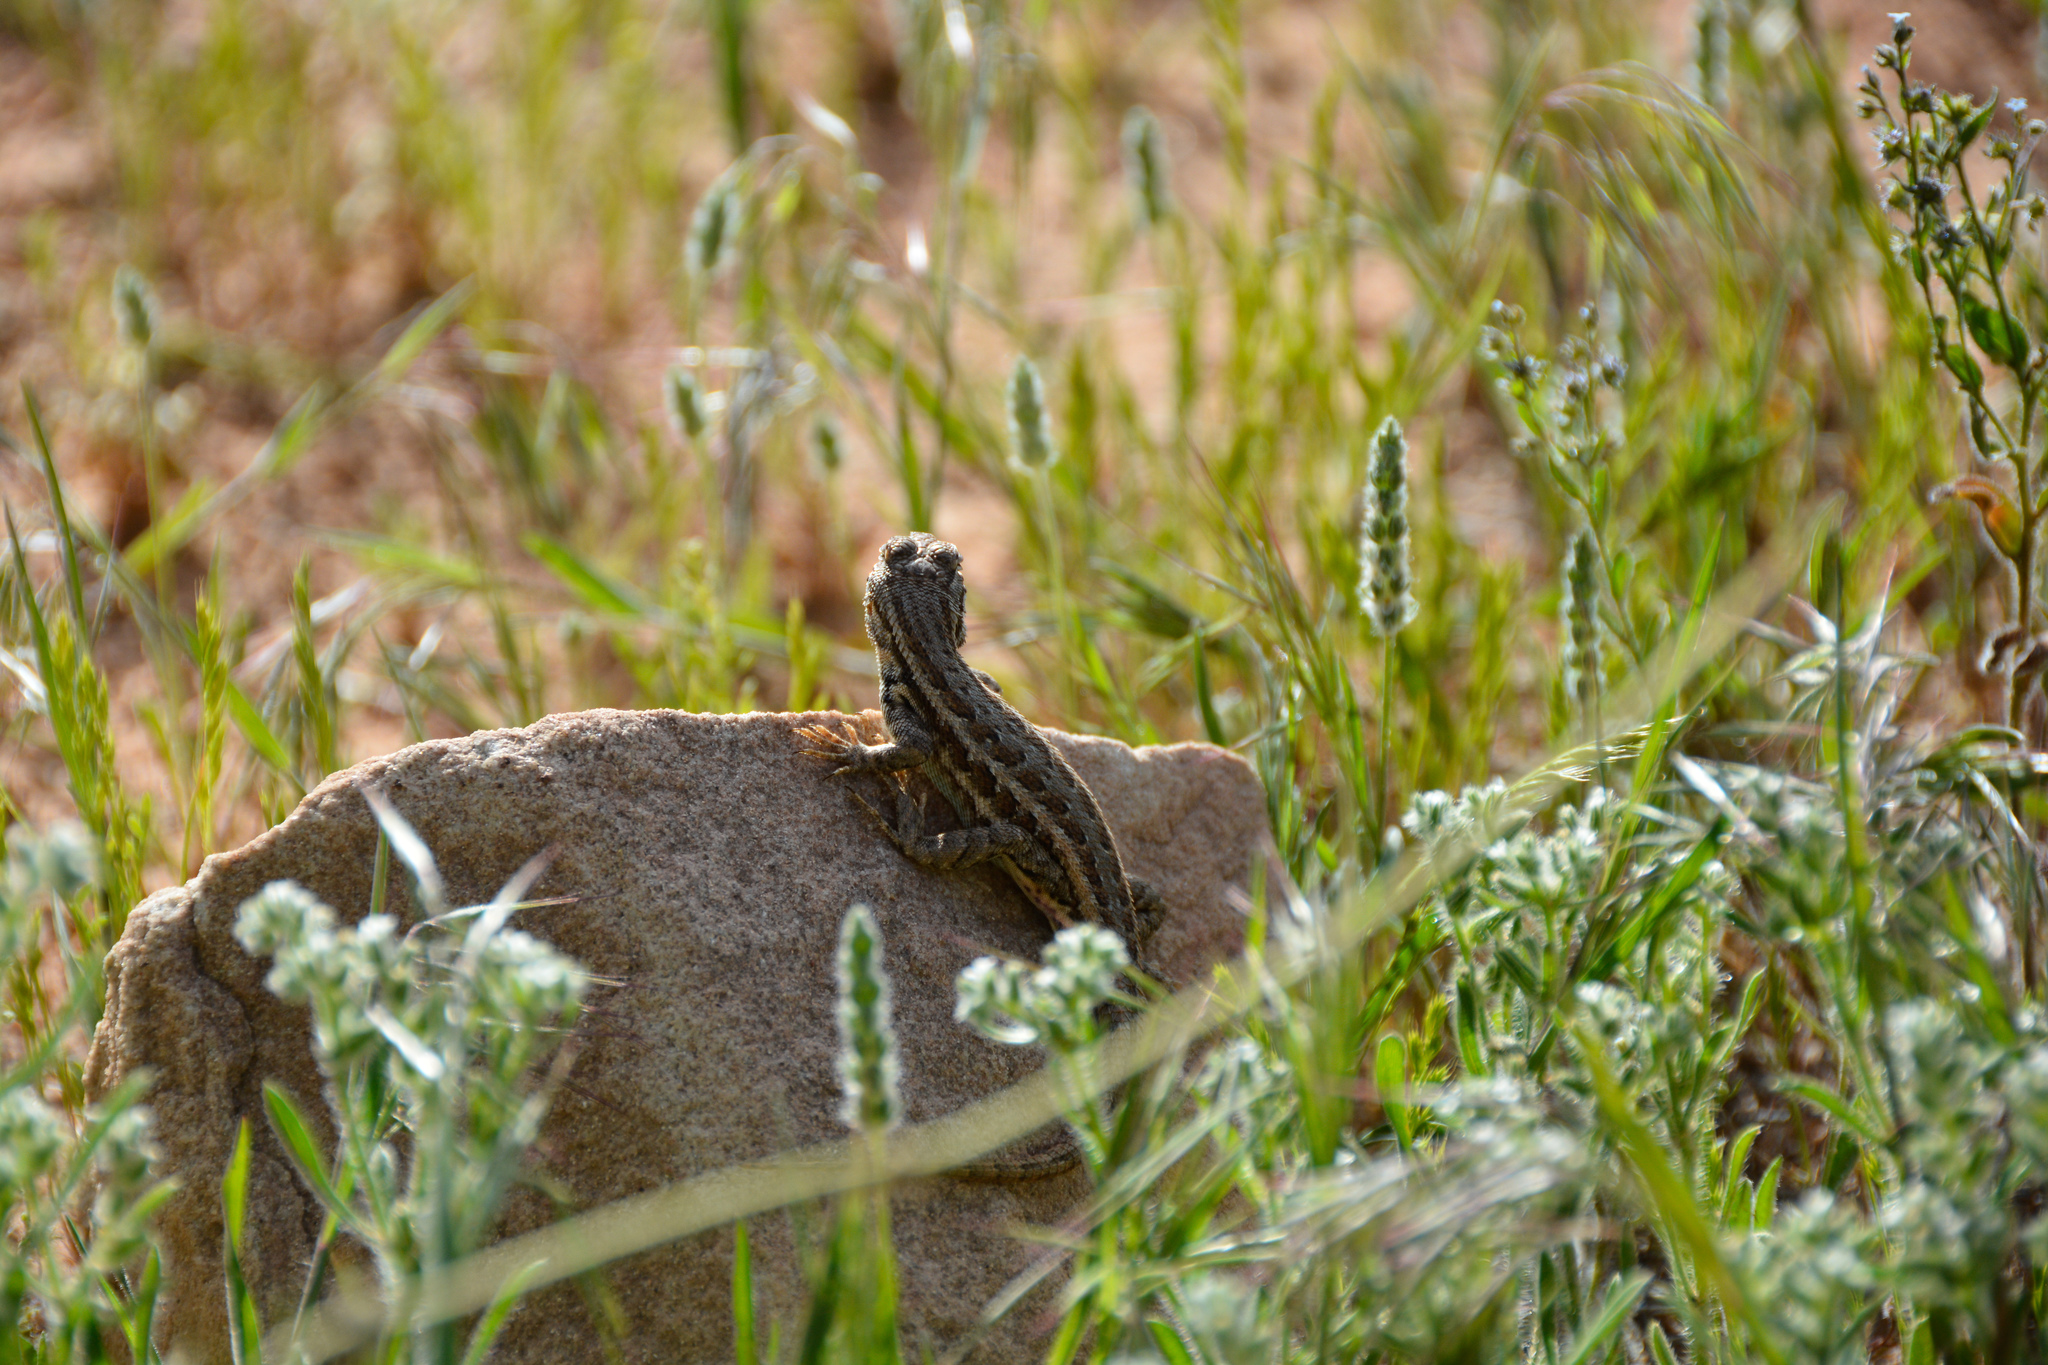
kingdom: Animalia
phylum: Chordata
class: Squamata
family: Phrynosomatidae
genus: Sceloporus
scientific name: Sceloporus graciosus
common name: Sagebrush lizard
